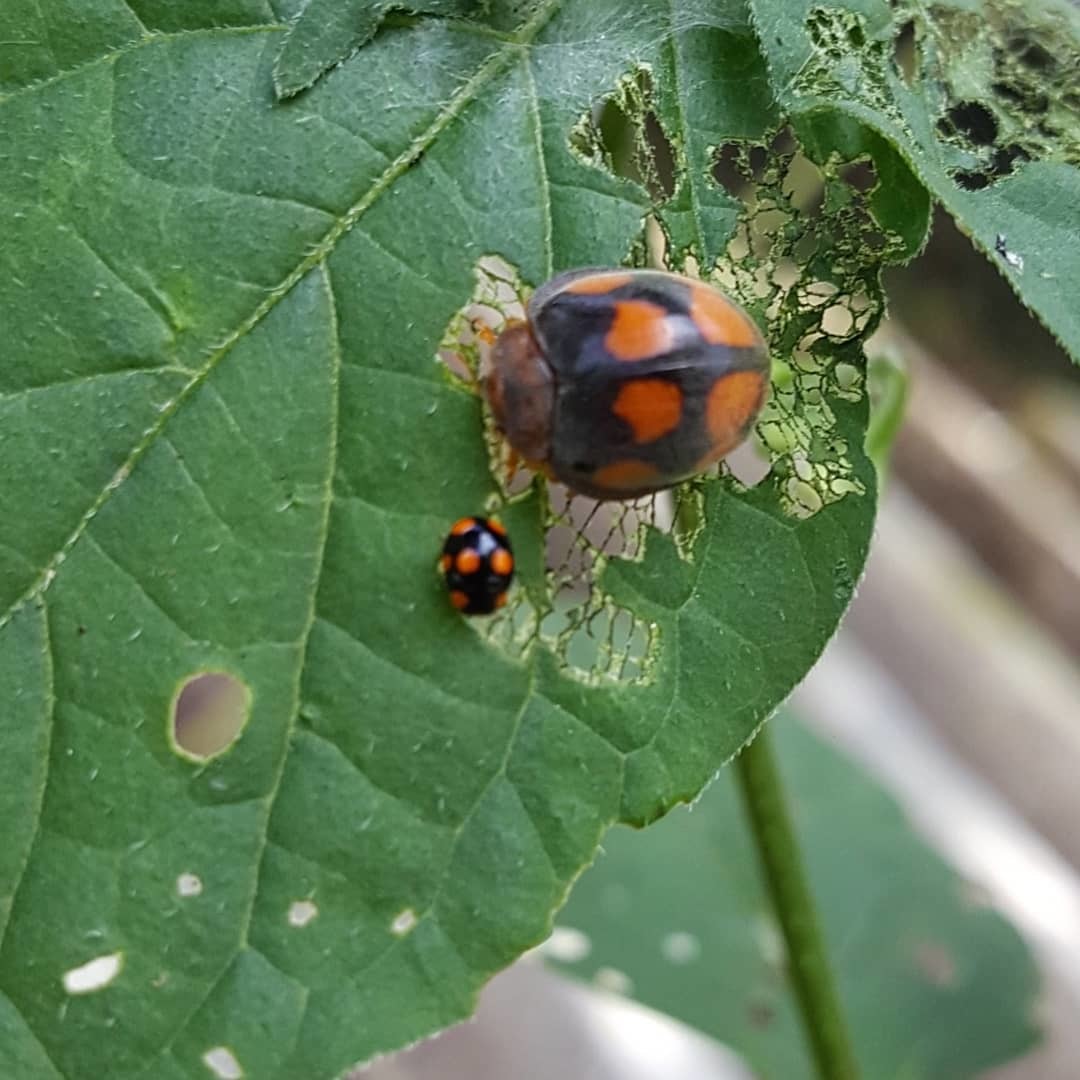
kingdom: Animalia
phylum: Arthropoda
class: Insecta
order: Coleoptera
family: Coccinellidae
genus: Epilachna
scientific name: Epilachna
